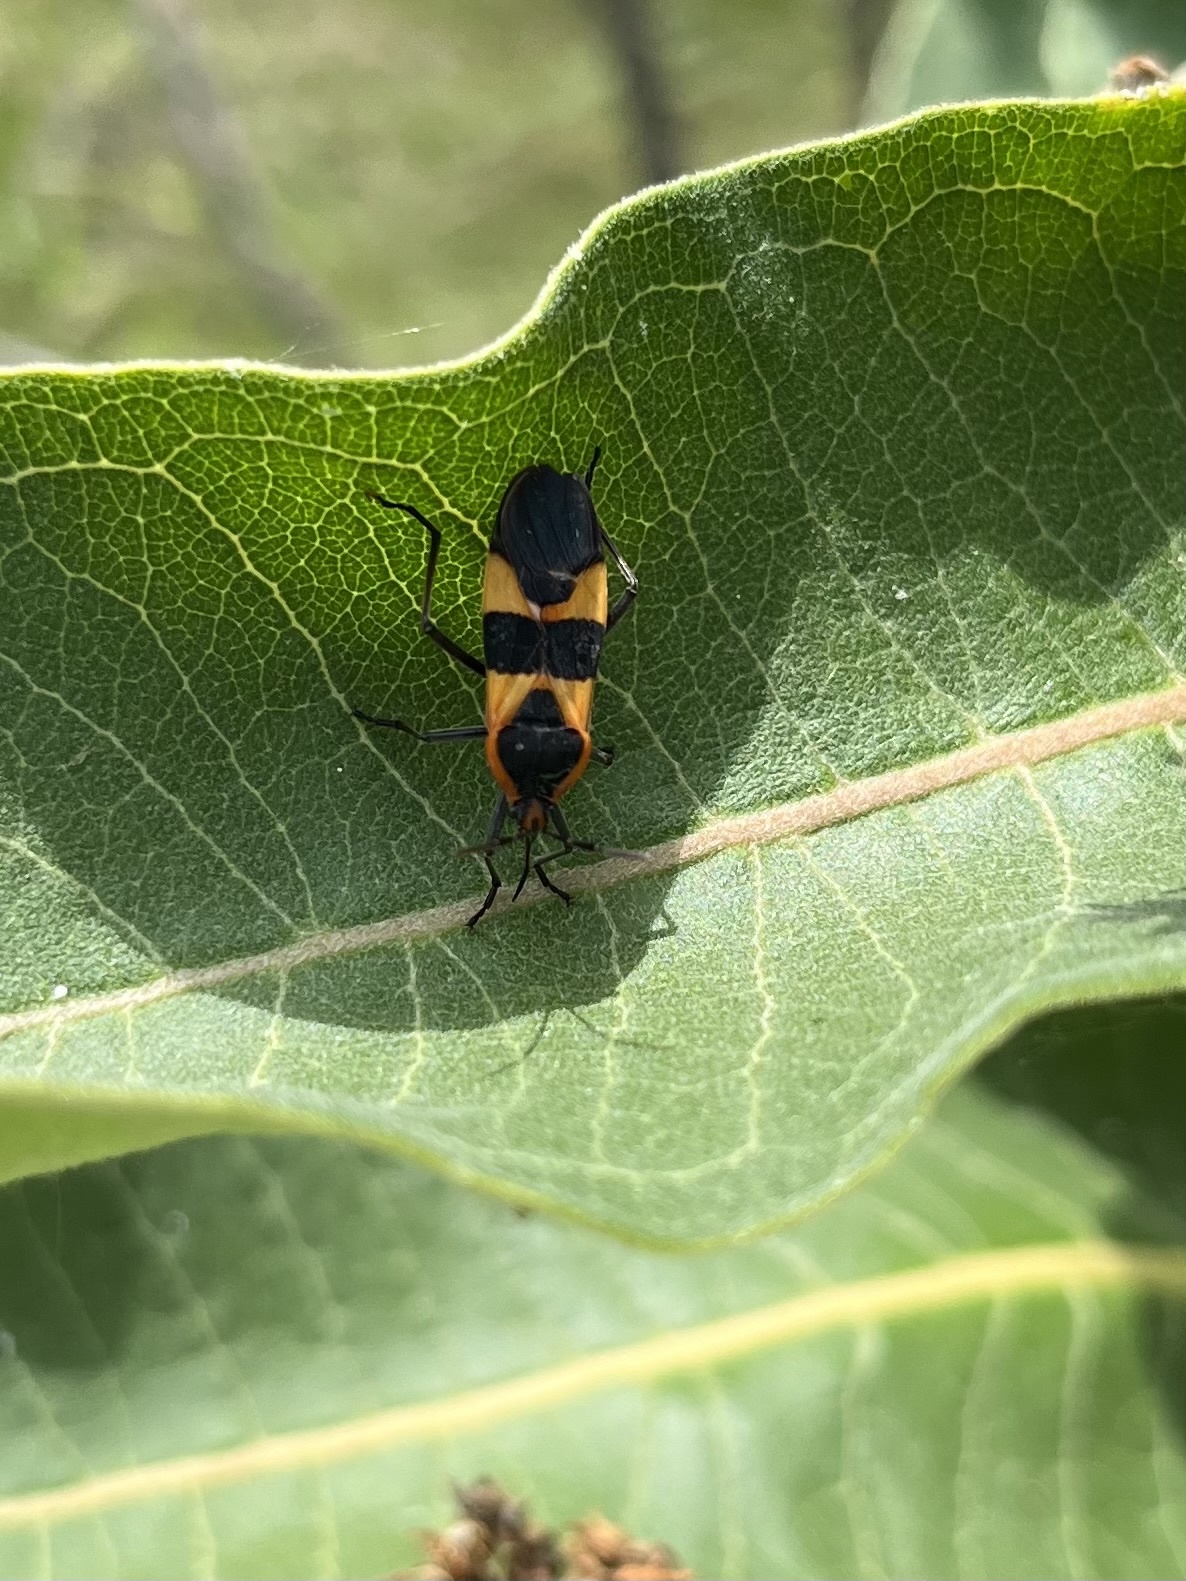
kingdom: Animalia
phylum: Arthropoda
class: Insecta
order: Hemiptera
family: Lygaeidae
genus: Oncopeltus
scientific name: Oncopeltus fasciatus
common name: Large milkweed bug
